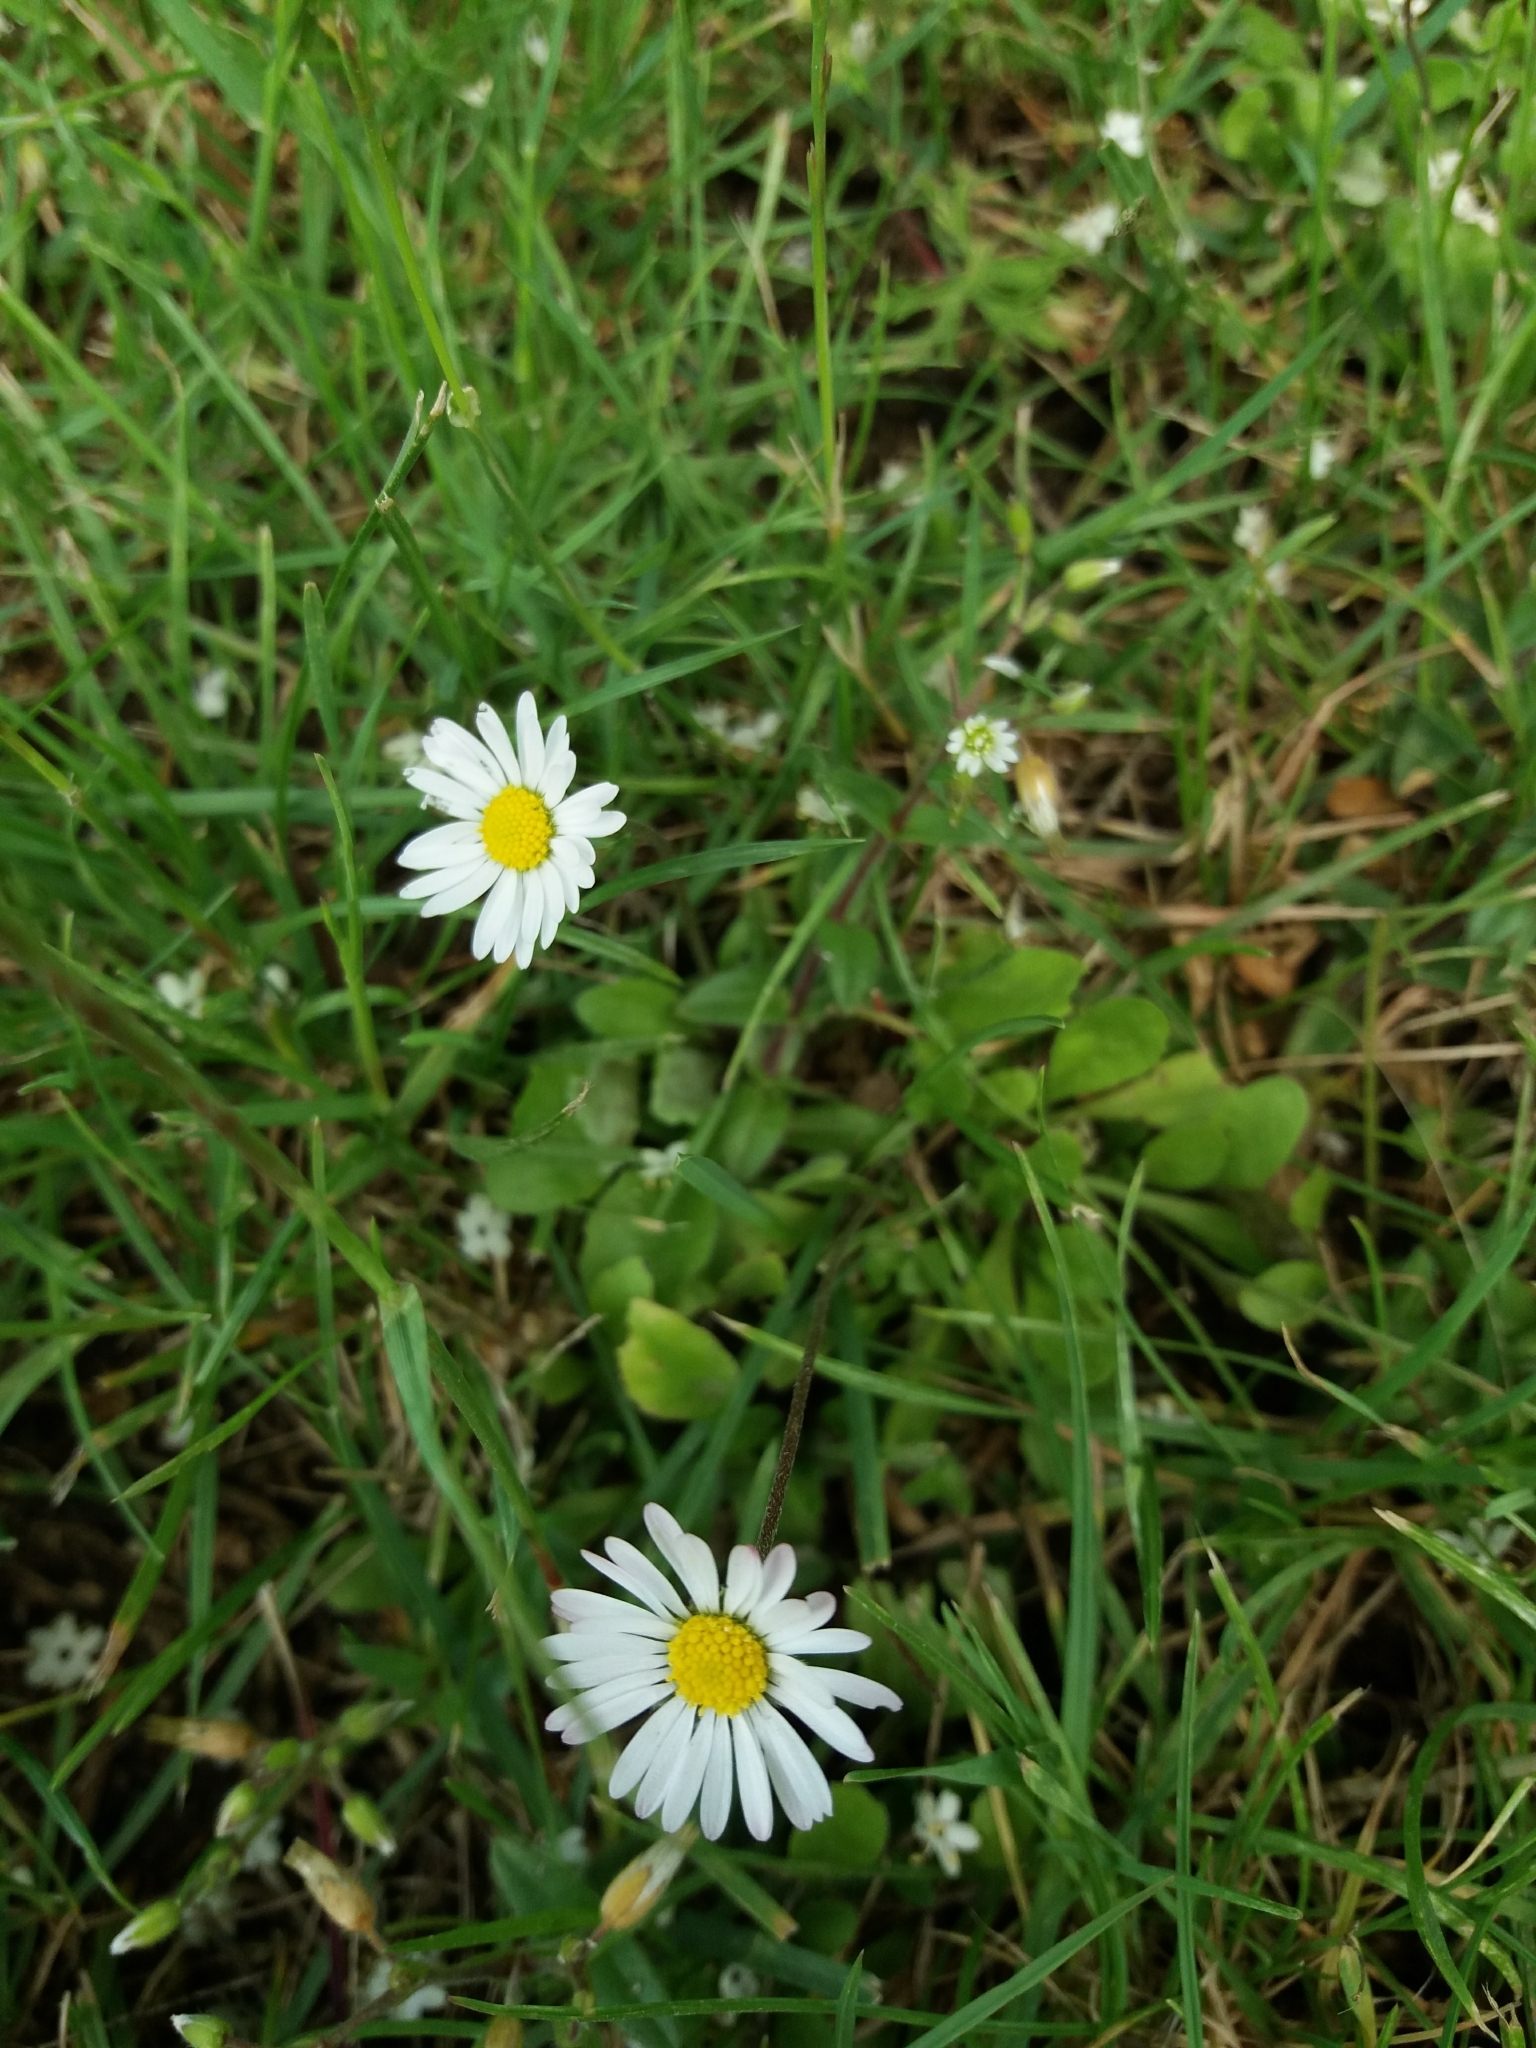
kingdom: Plantae
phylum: Tracheophyta
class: Magnoliopsida
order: Asterales
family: Asteraceae
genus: Bellis
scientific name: Bellis perennis
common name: Lawndaisy
